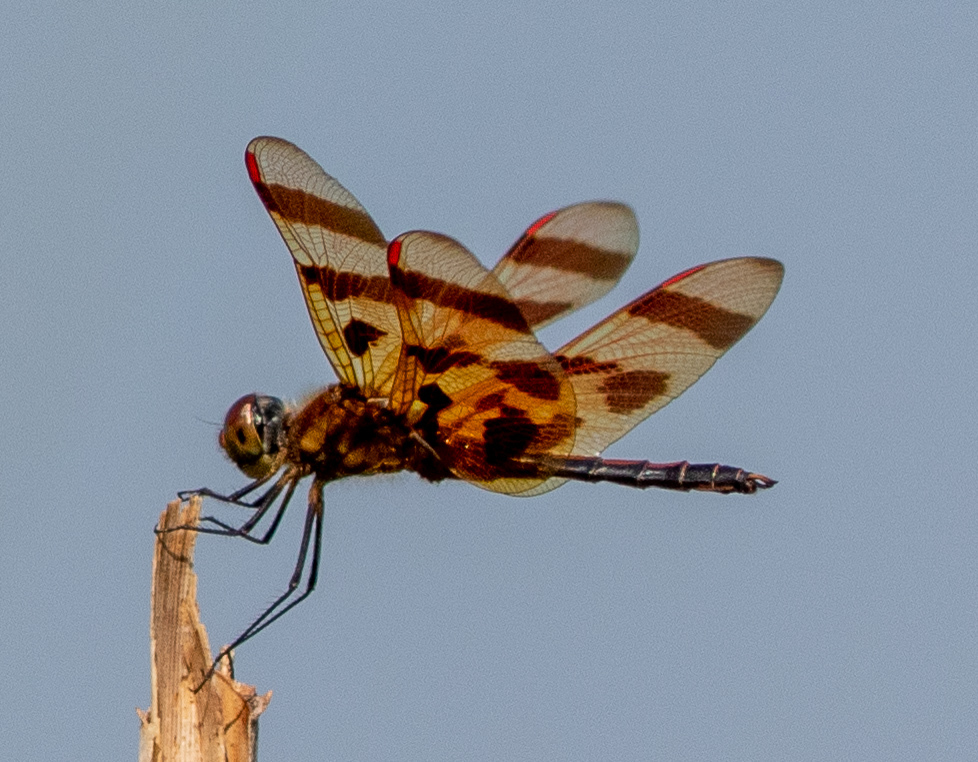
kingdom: Animalia
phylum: Arthropoda
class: Insecta
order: Odonata
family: Libellulidae
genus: Celithemis
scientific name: Celithemis eponina
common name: Halloween pennant
